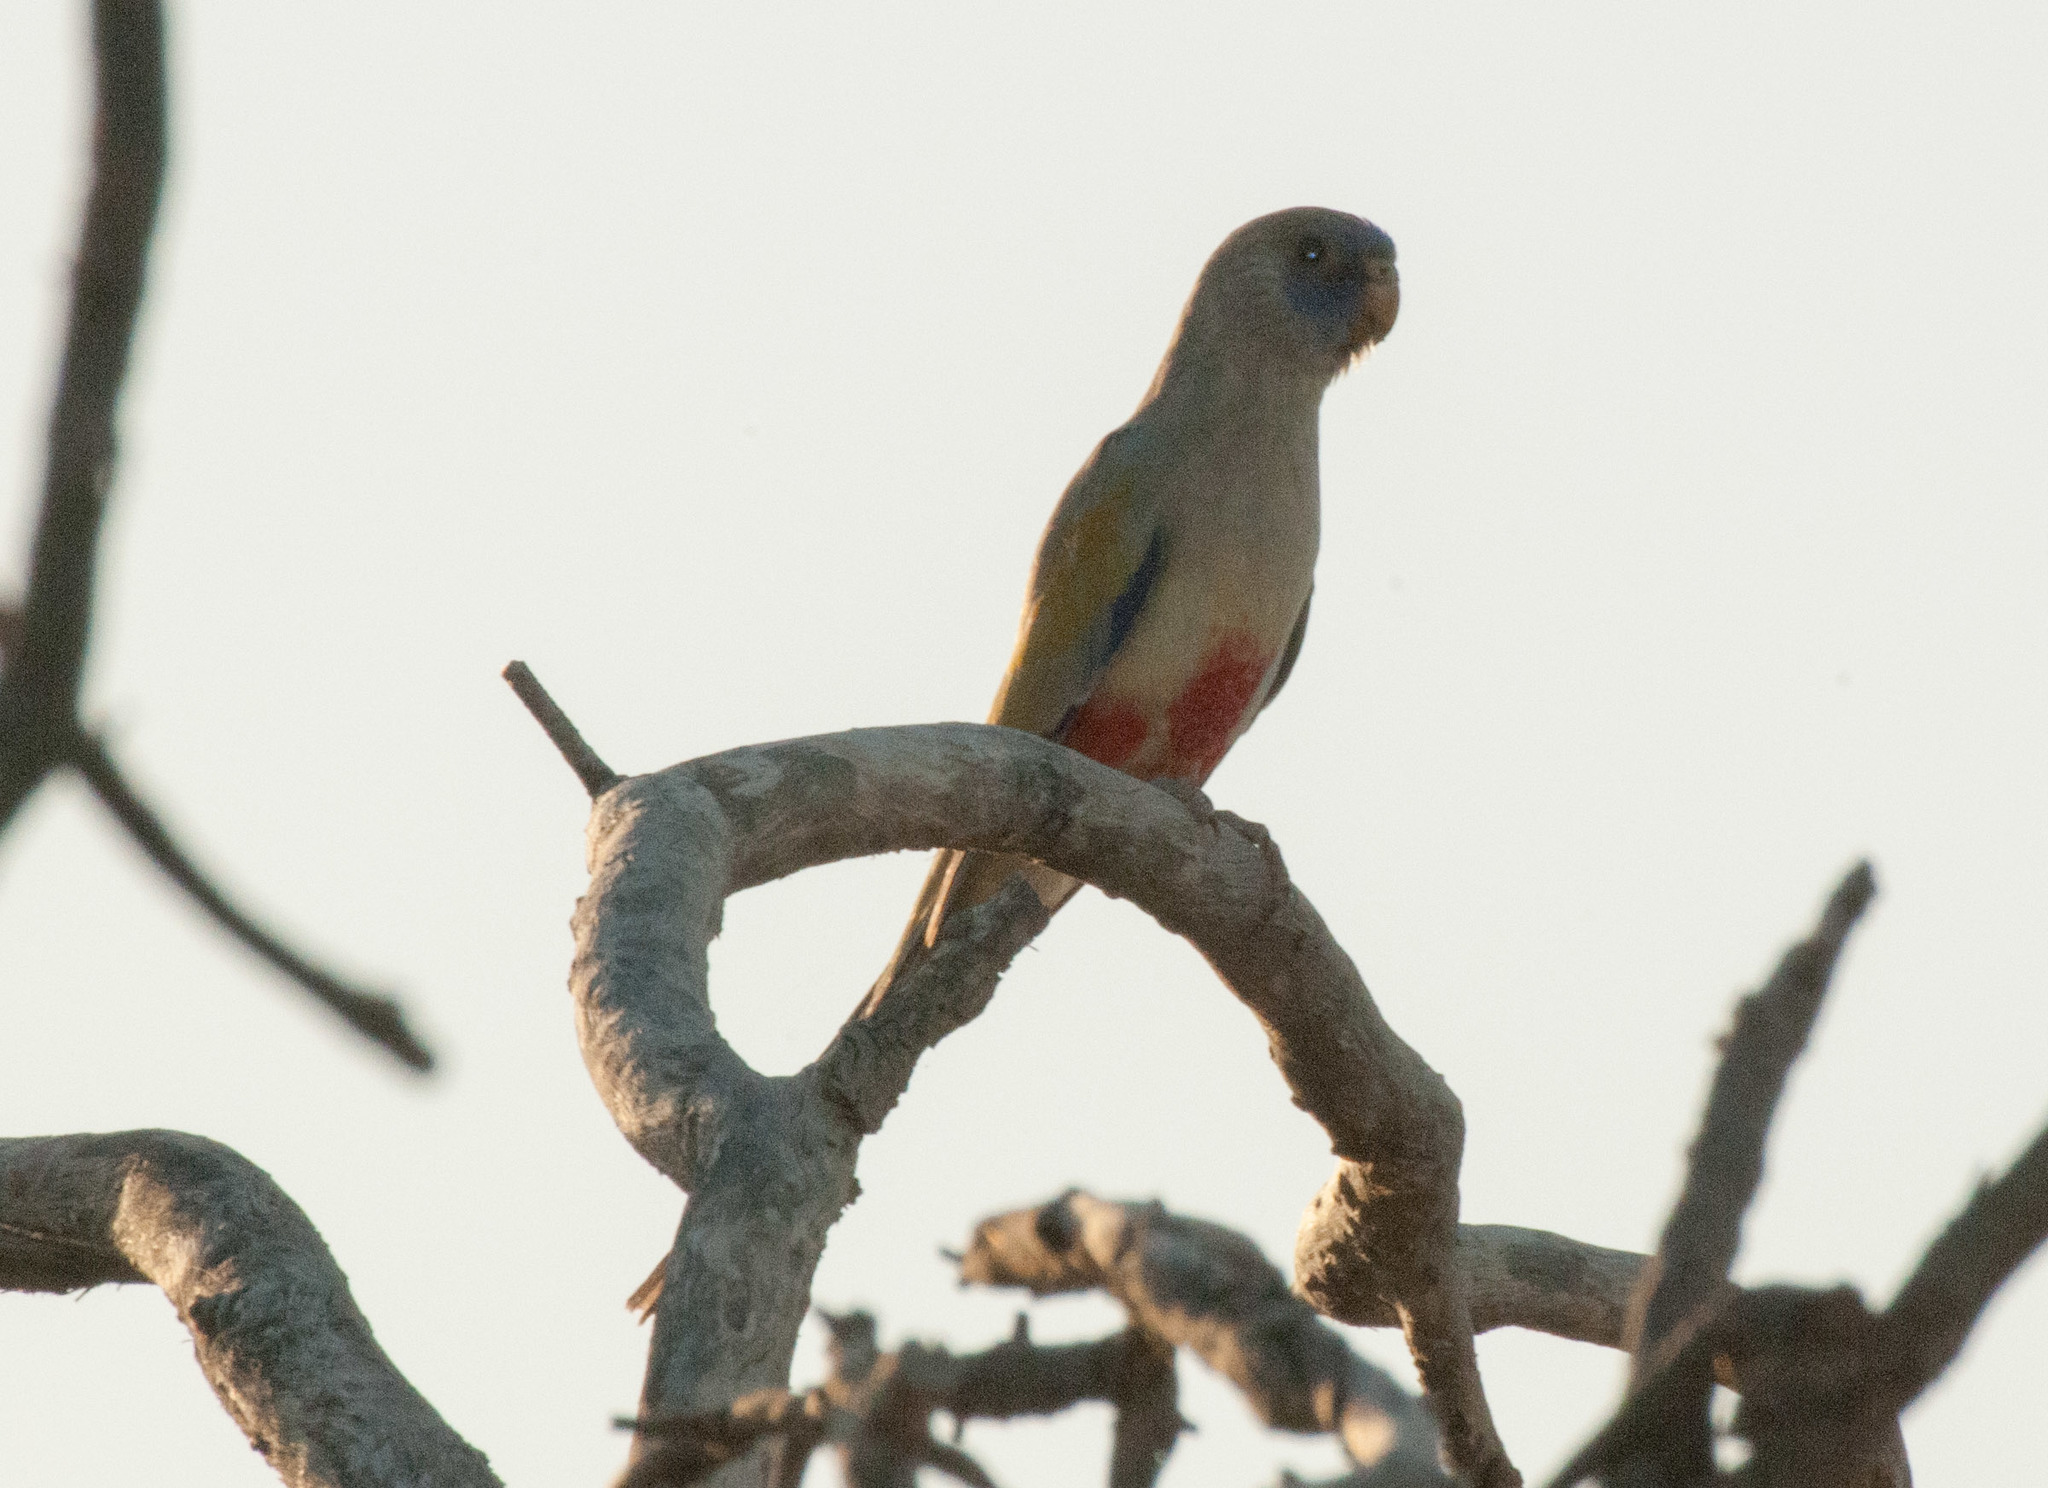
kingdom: Animalia
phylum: Chordata
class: Aves
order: Psittaciformes
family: Psittacidae
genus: Northiella
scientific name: Northiella haematogaster
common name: Bluebonnet
